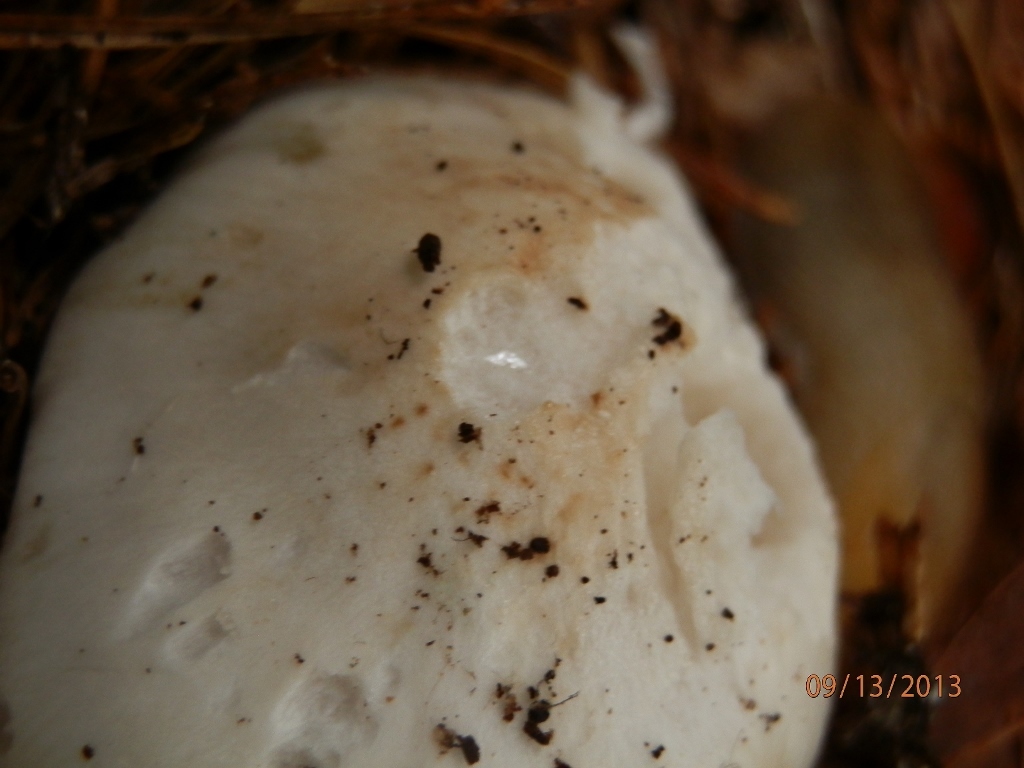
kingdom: Fungi
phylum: Basidiomycota
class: Agaricomycetes
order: Agaricales
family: Tricholomataceae
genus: Tricholoma
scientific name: Tricholoma subresplendens
